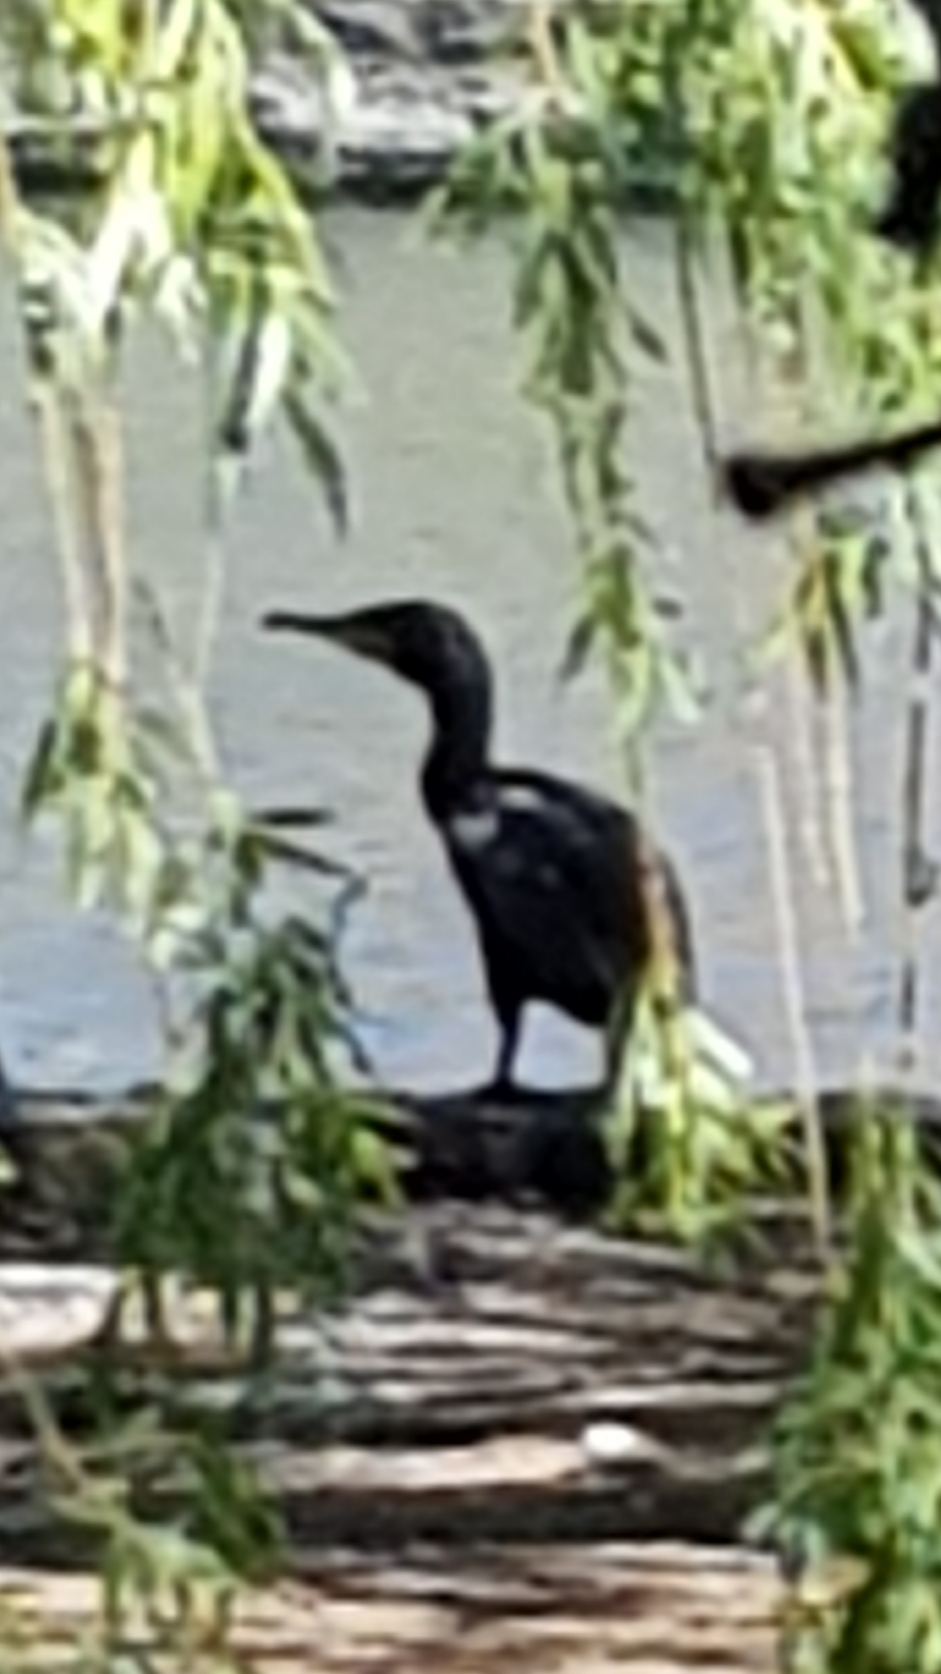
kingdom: Animalia
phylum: Chordata
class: Aves
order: Suliformes
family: Phalacrocoracidae
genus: Phalacrocorax
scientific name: Phalacrocorax carbo
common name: Great cormorant
